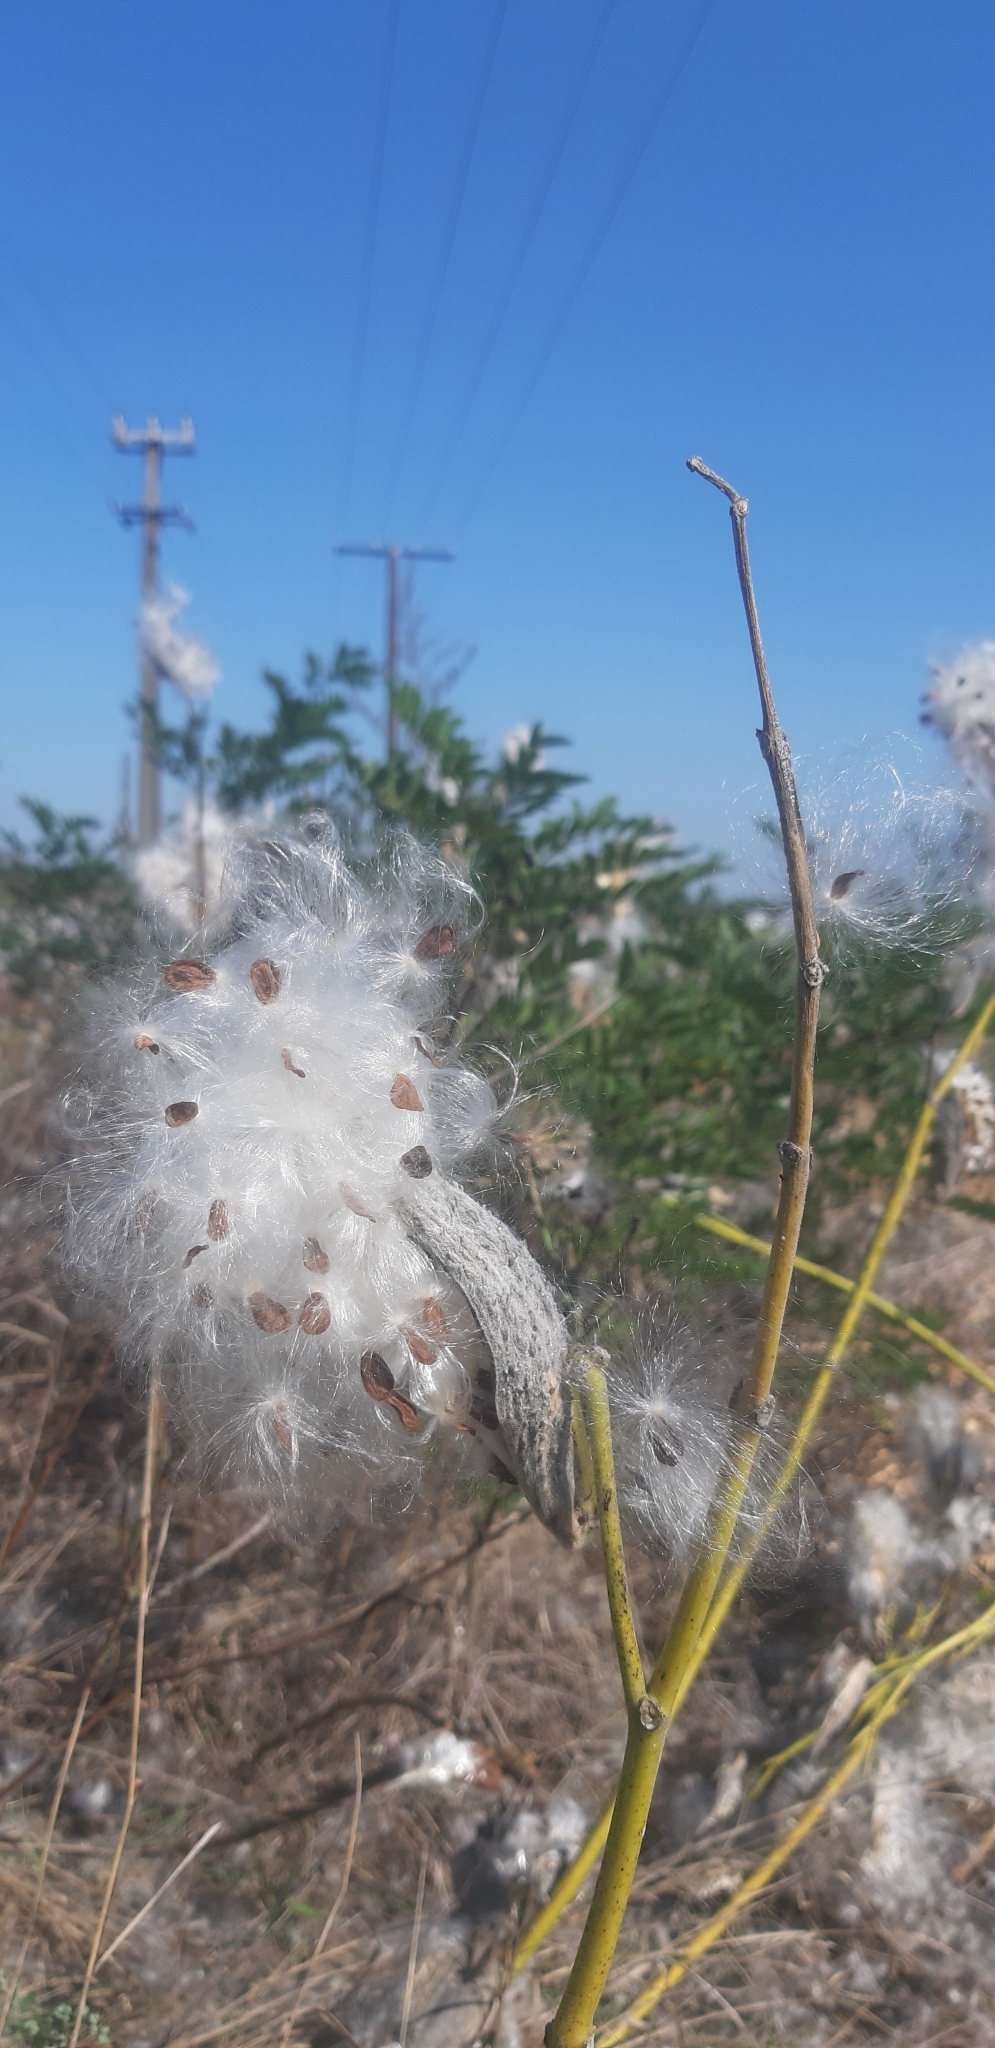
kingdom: Plantae
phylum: Tracheophyta
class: Magnoliopsida
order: Gentianales
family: Apocynaceae
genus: Asclepias
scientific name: Asclepias syriaca
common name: Common milkweed
